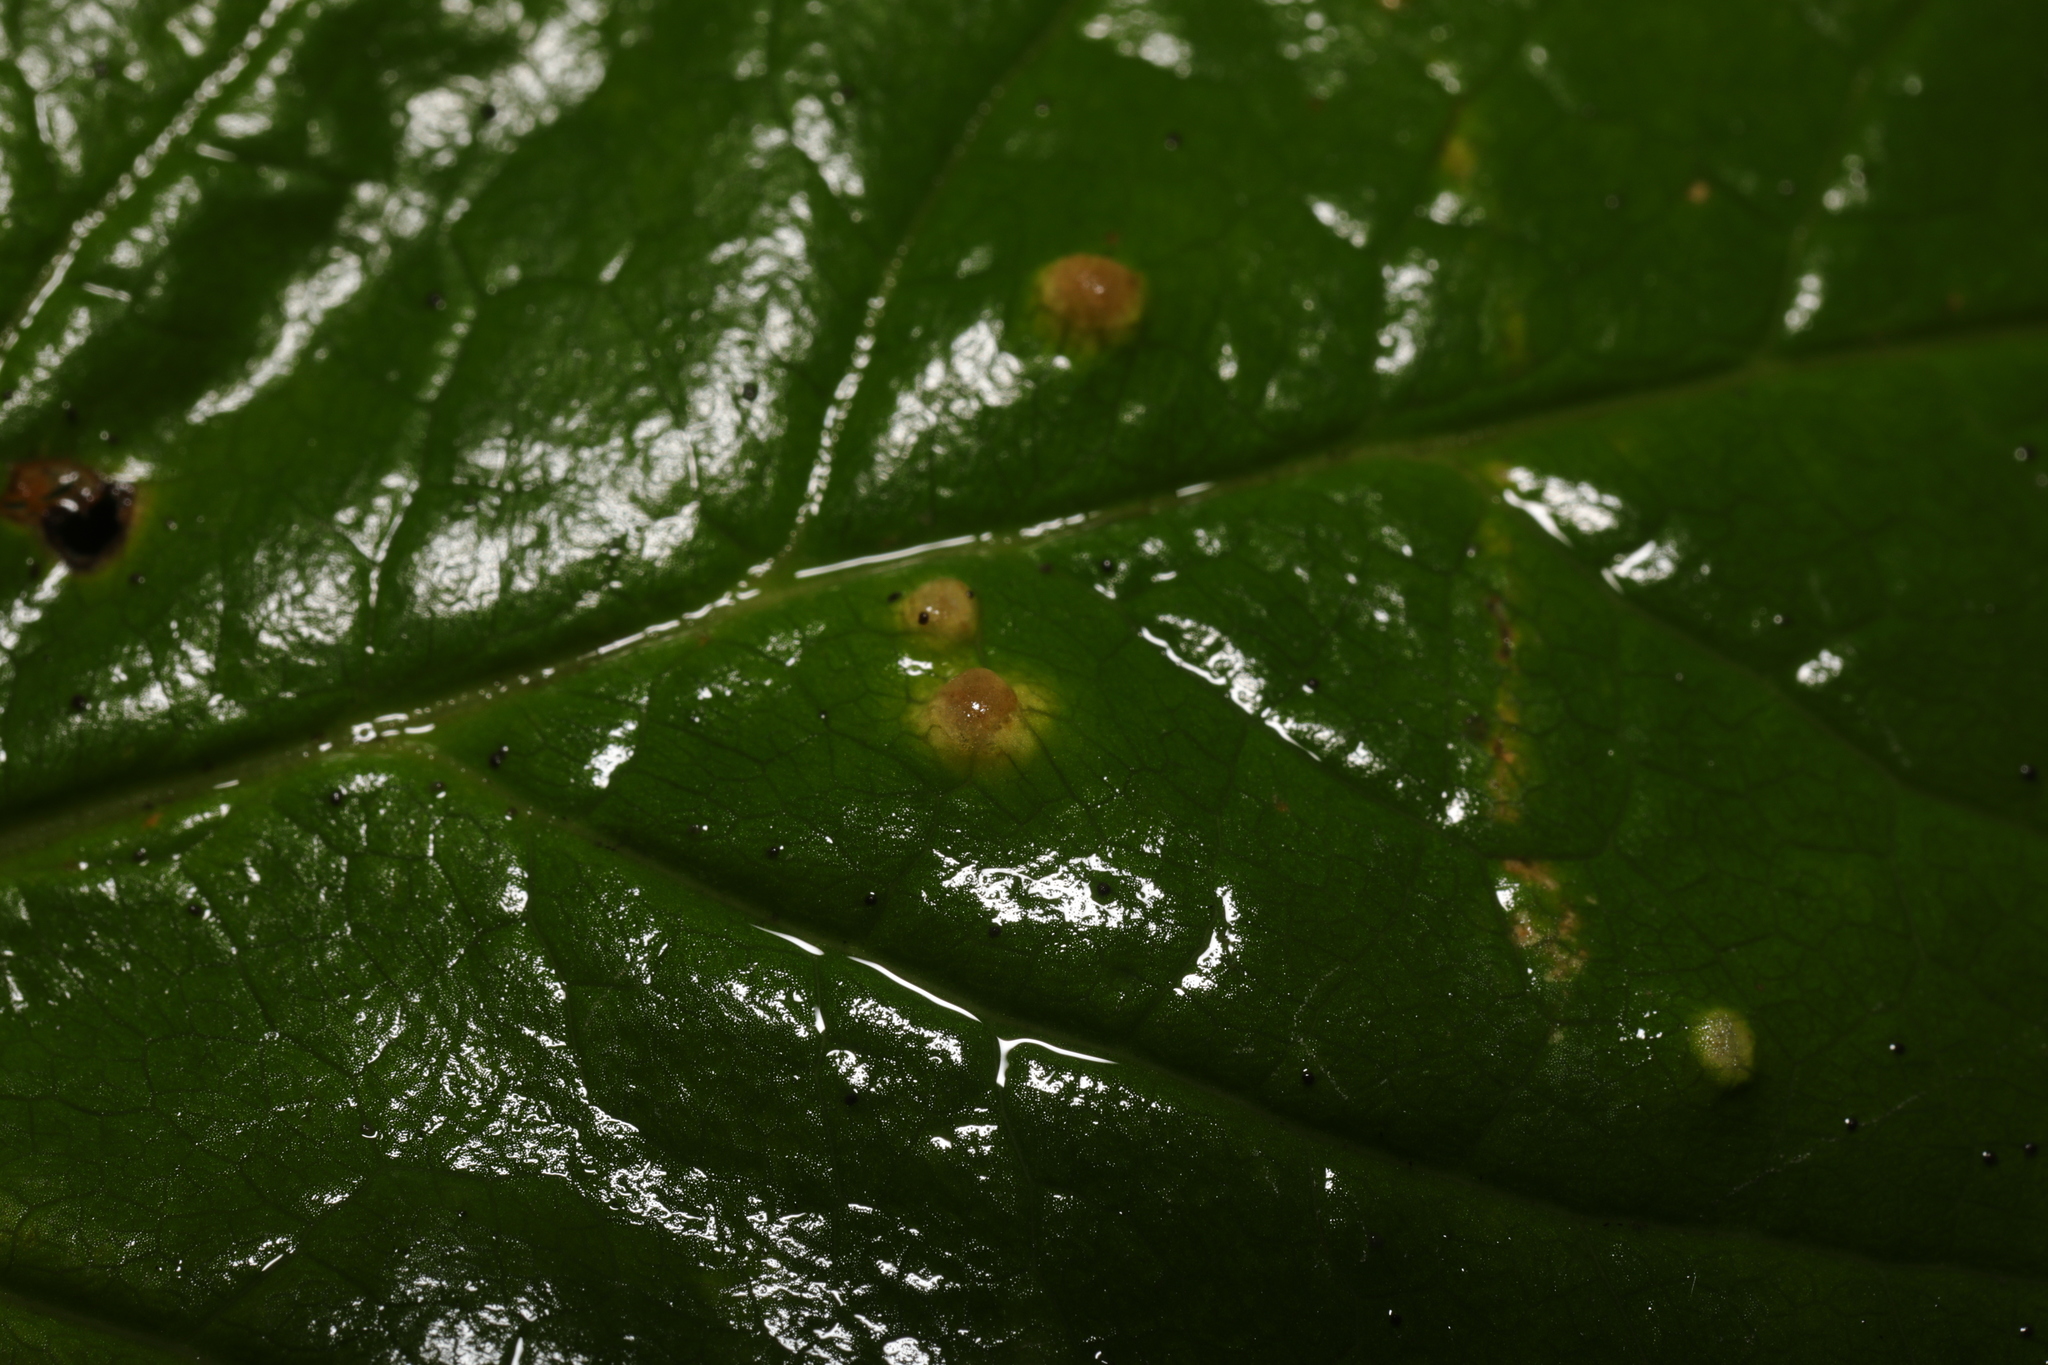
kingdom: Fungi
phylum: Ascomycota
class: Taphrinomycetes
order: Taphrinales
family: Taphrinaceae
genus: Protomyces
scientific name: Protomyces macrosporus
